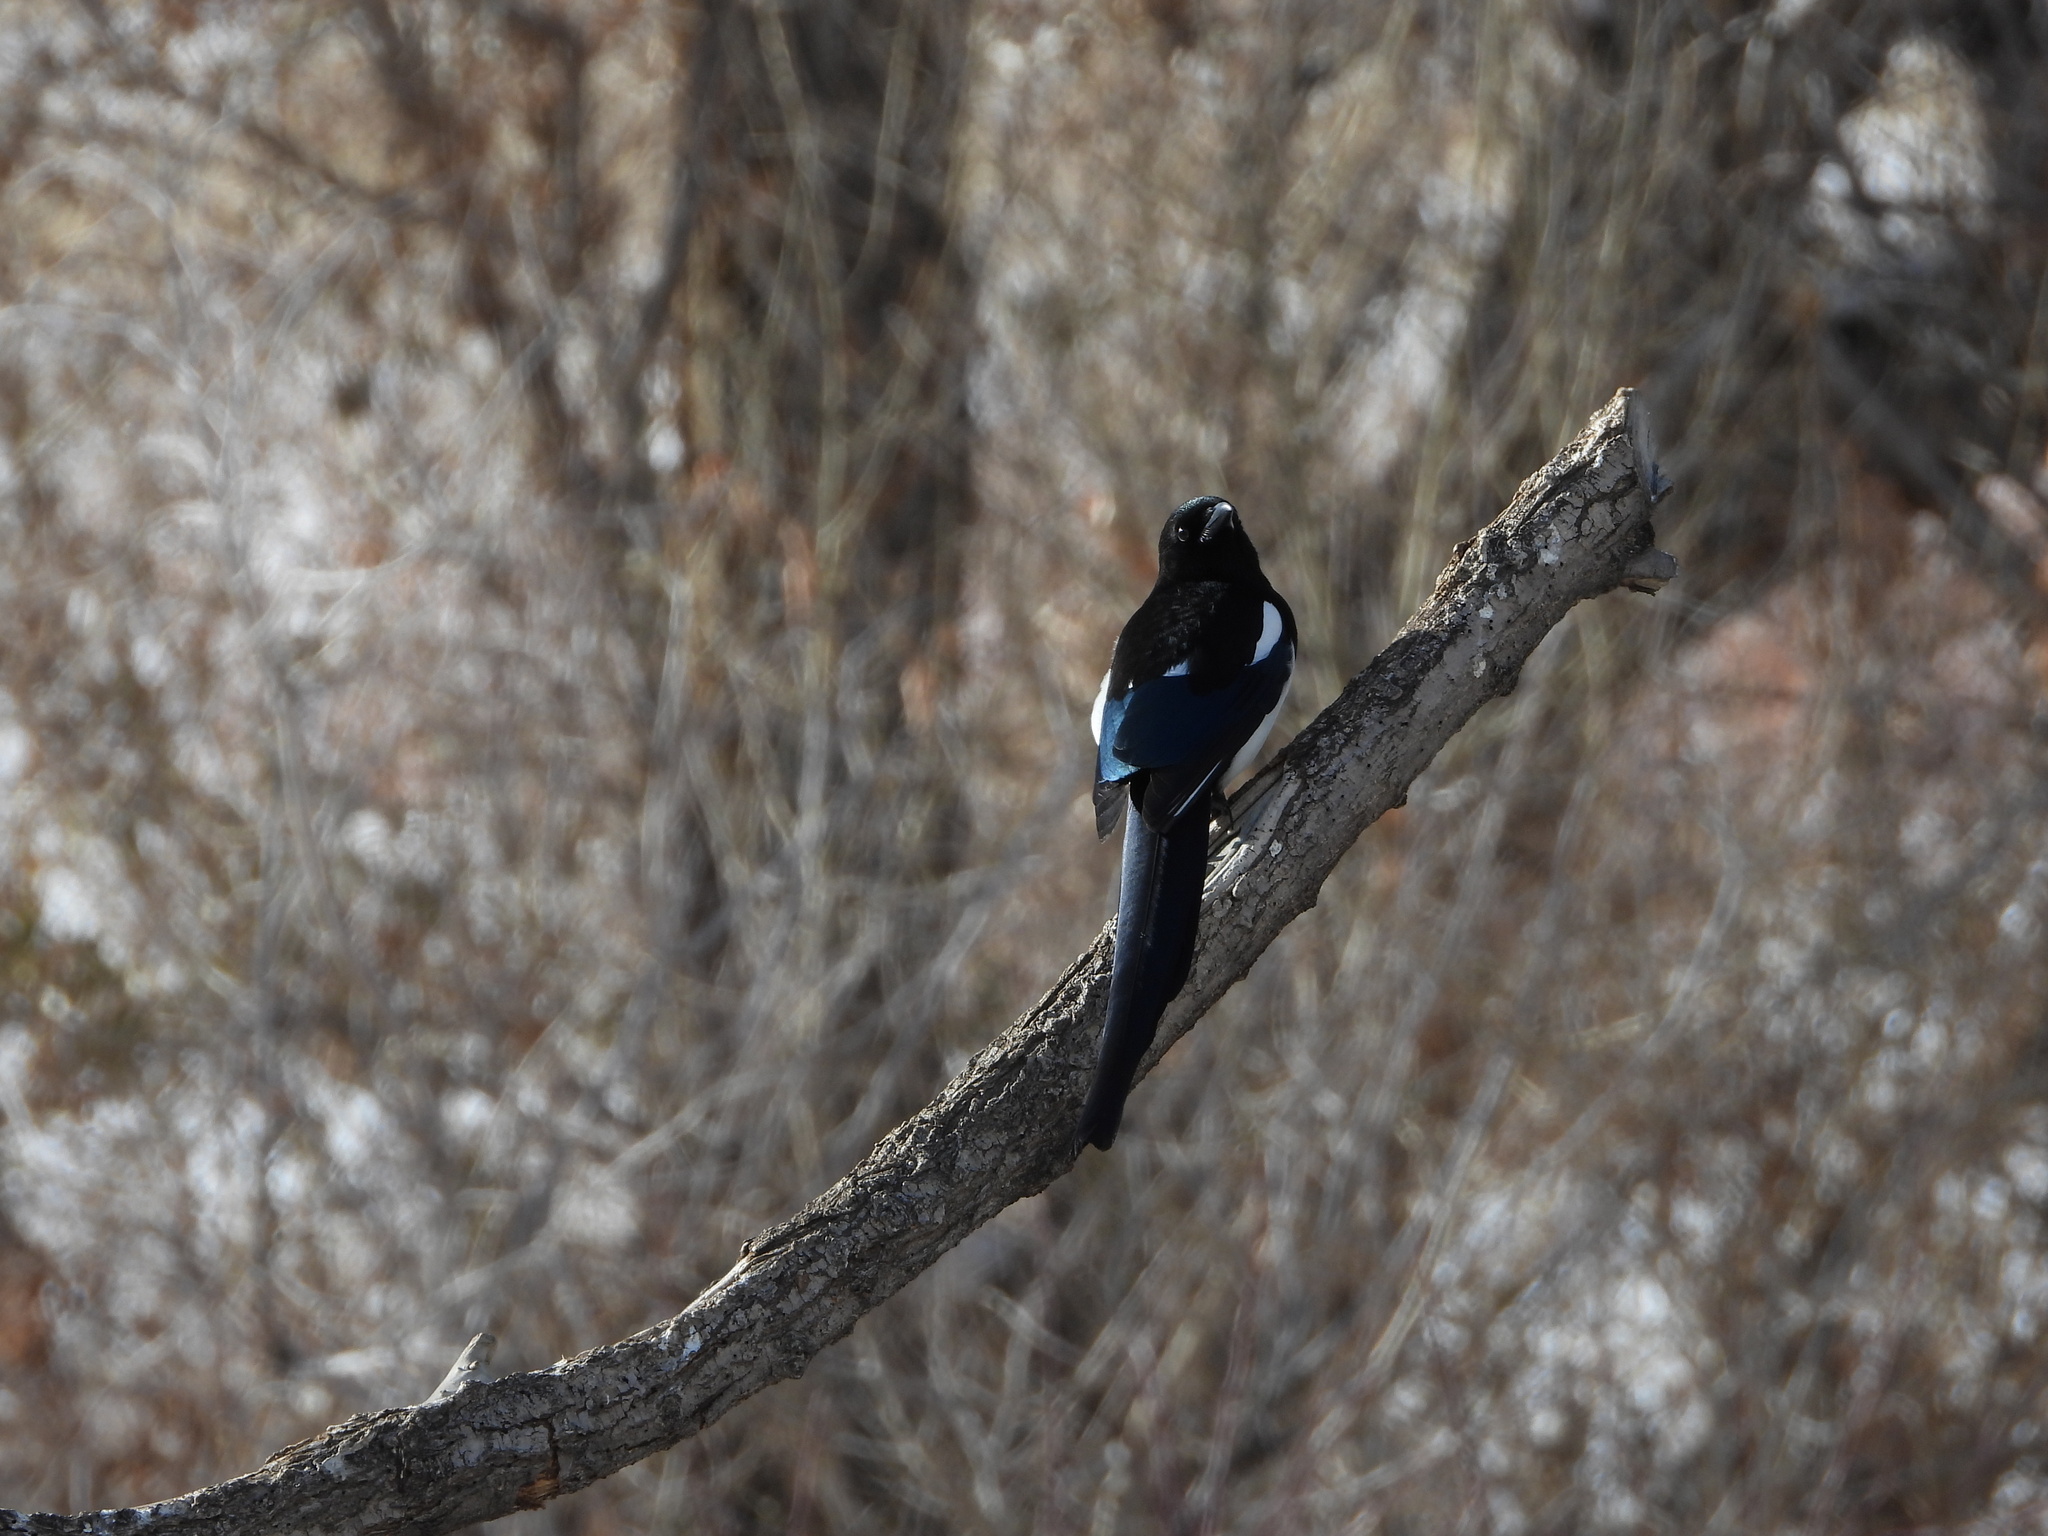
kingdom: Animalia
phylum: Chordata
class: Aves
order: Passeriformes
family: Corvidae
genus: Pica
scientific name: Pica hudsonia
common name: Black-billed magpie
